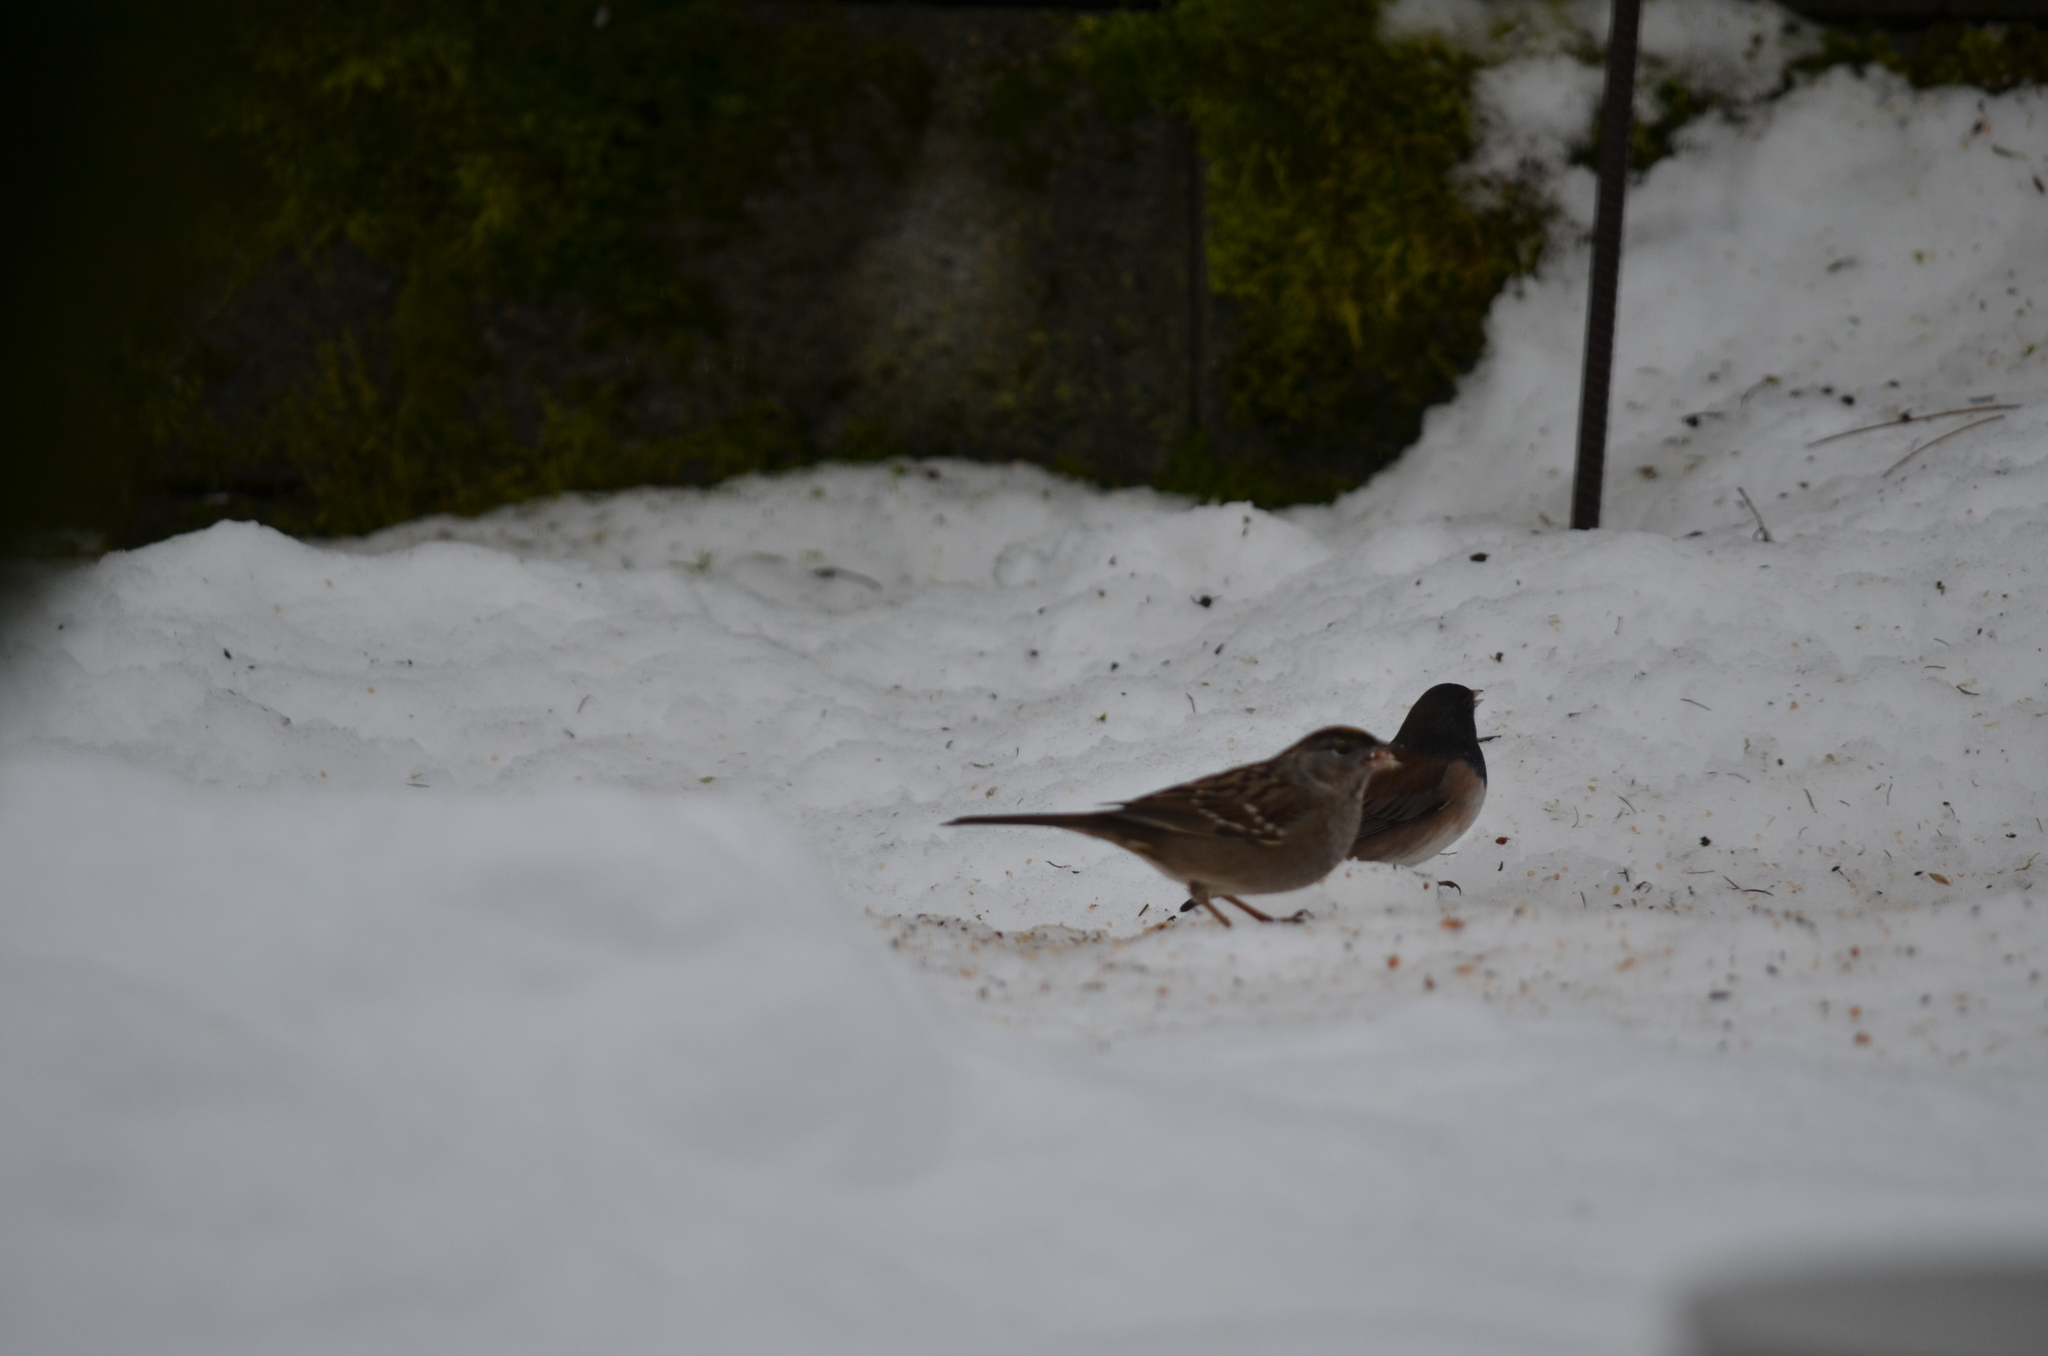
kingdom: Animalia
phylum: Chordata
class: Aves
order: Passeriformes
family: Passerellidae
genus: Zonotrichia
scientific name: Zonotrichia atricapilla
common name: Golden-crowned sparrow
